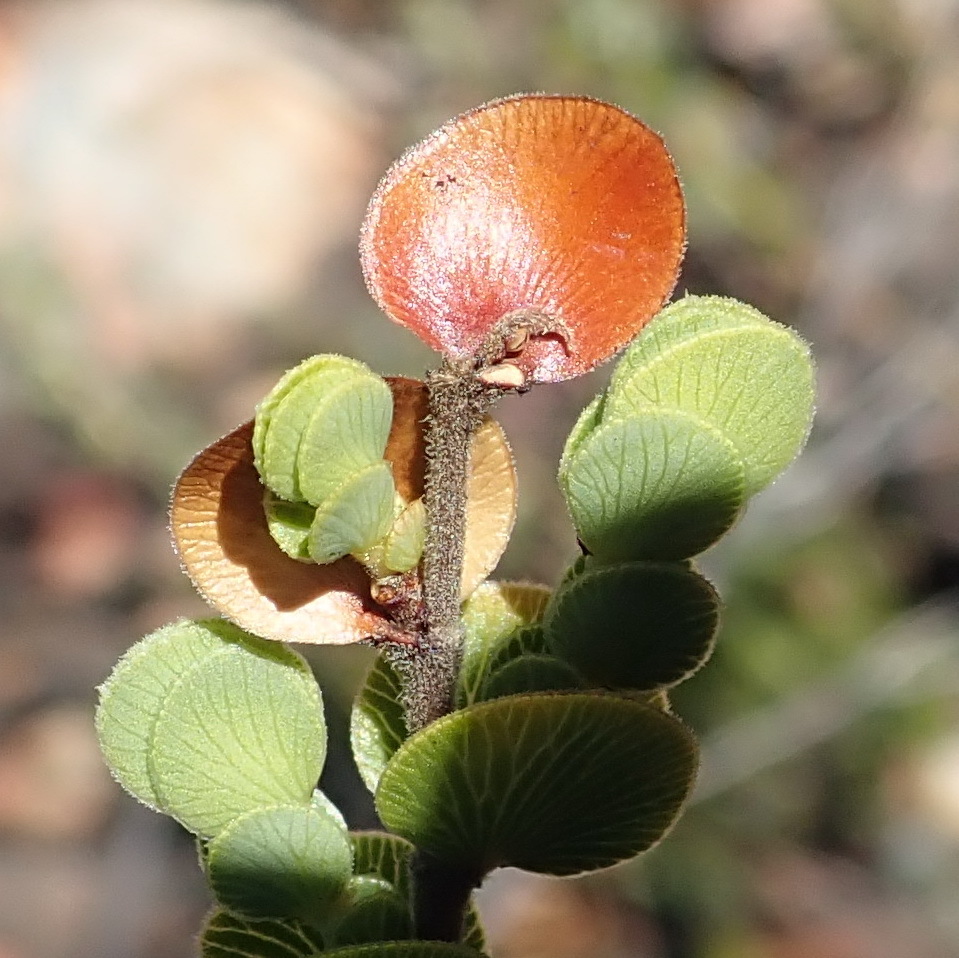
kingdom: Plantae
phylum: Tracheophyta
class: Magnoliopsida
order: Rosales
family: Rosaceae
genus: Cliffortia
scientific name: Cliffortia pulchella
